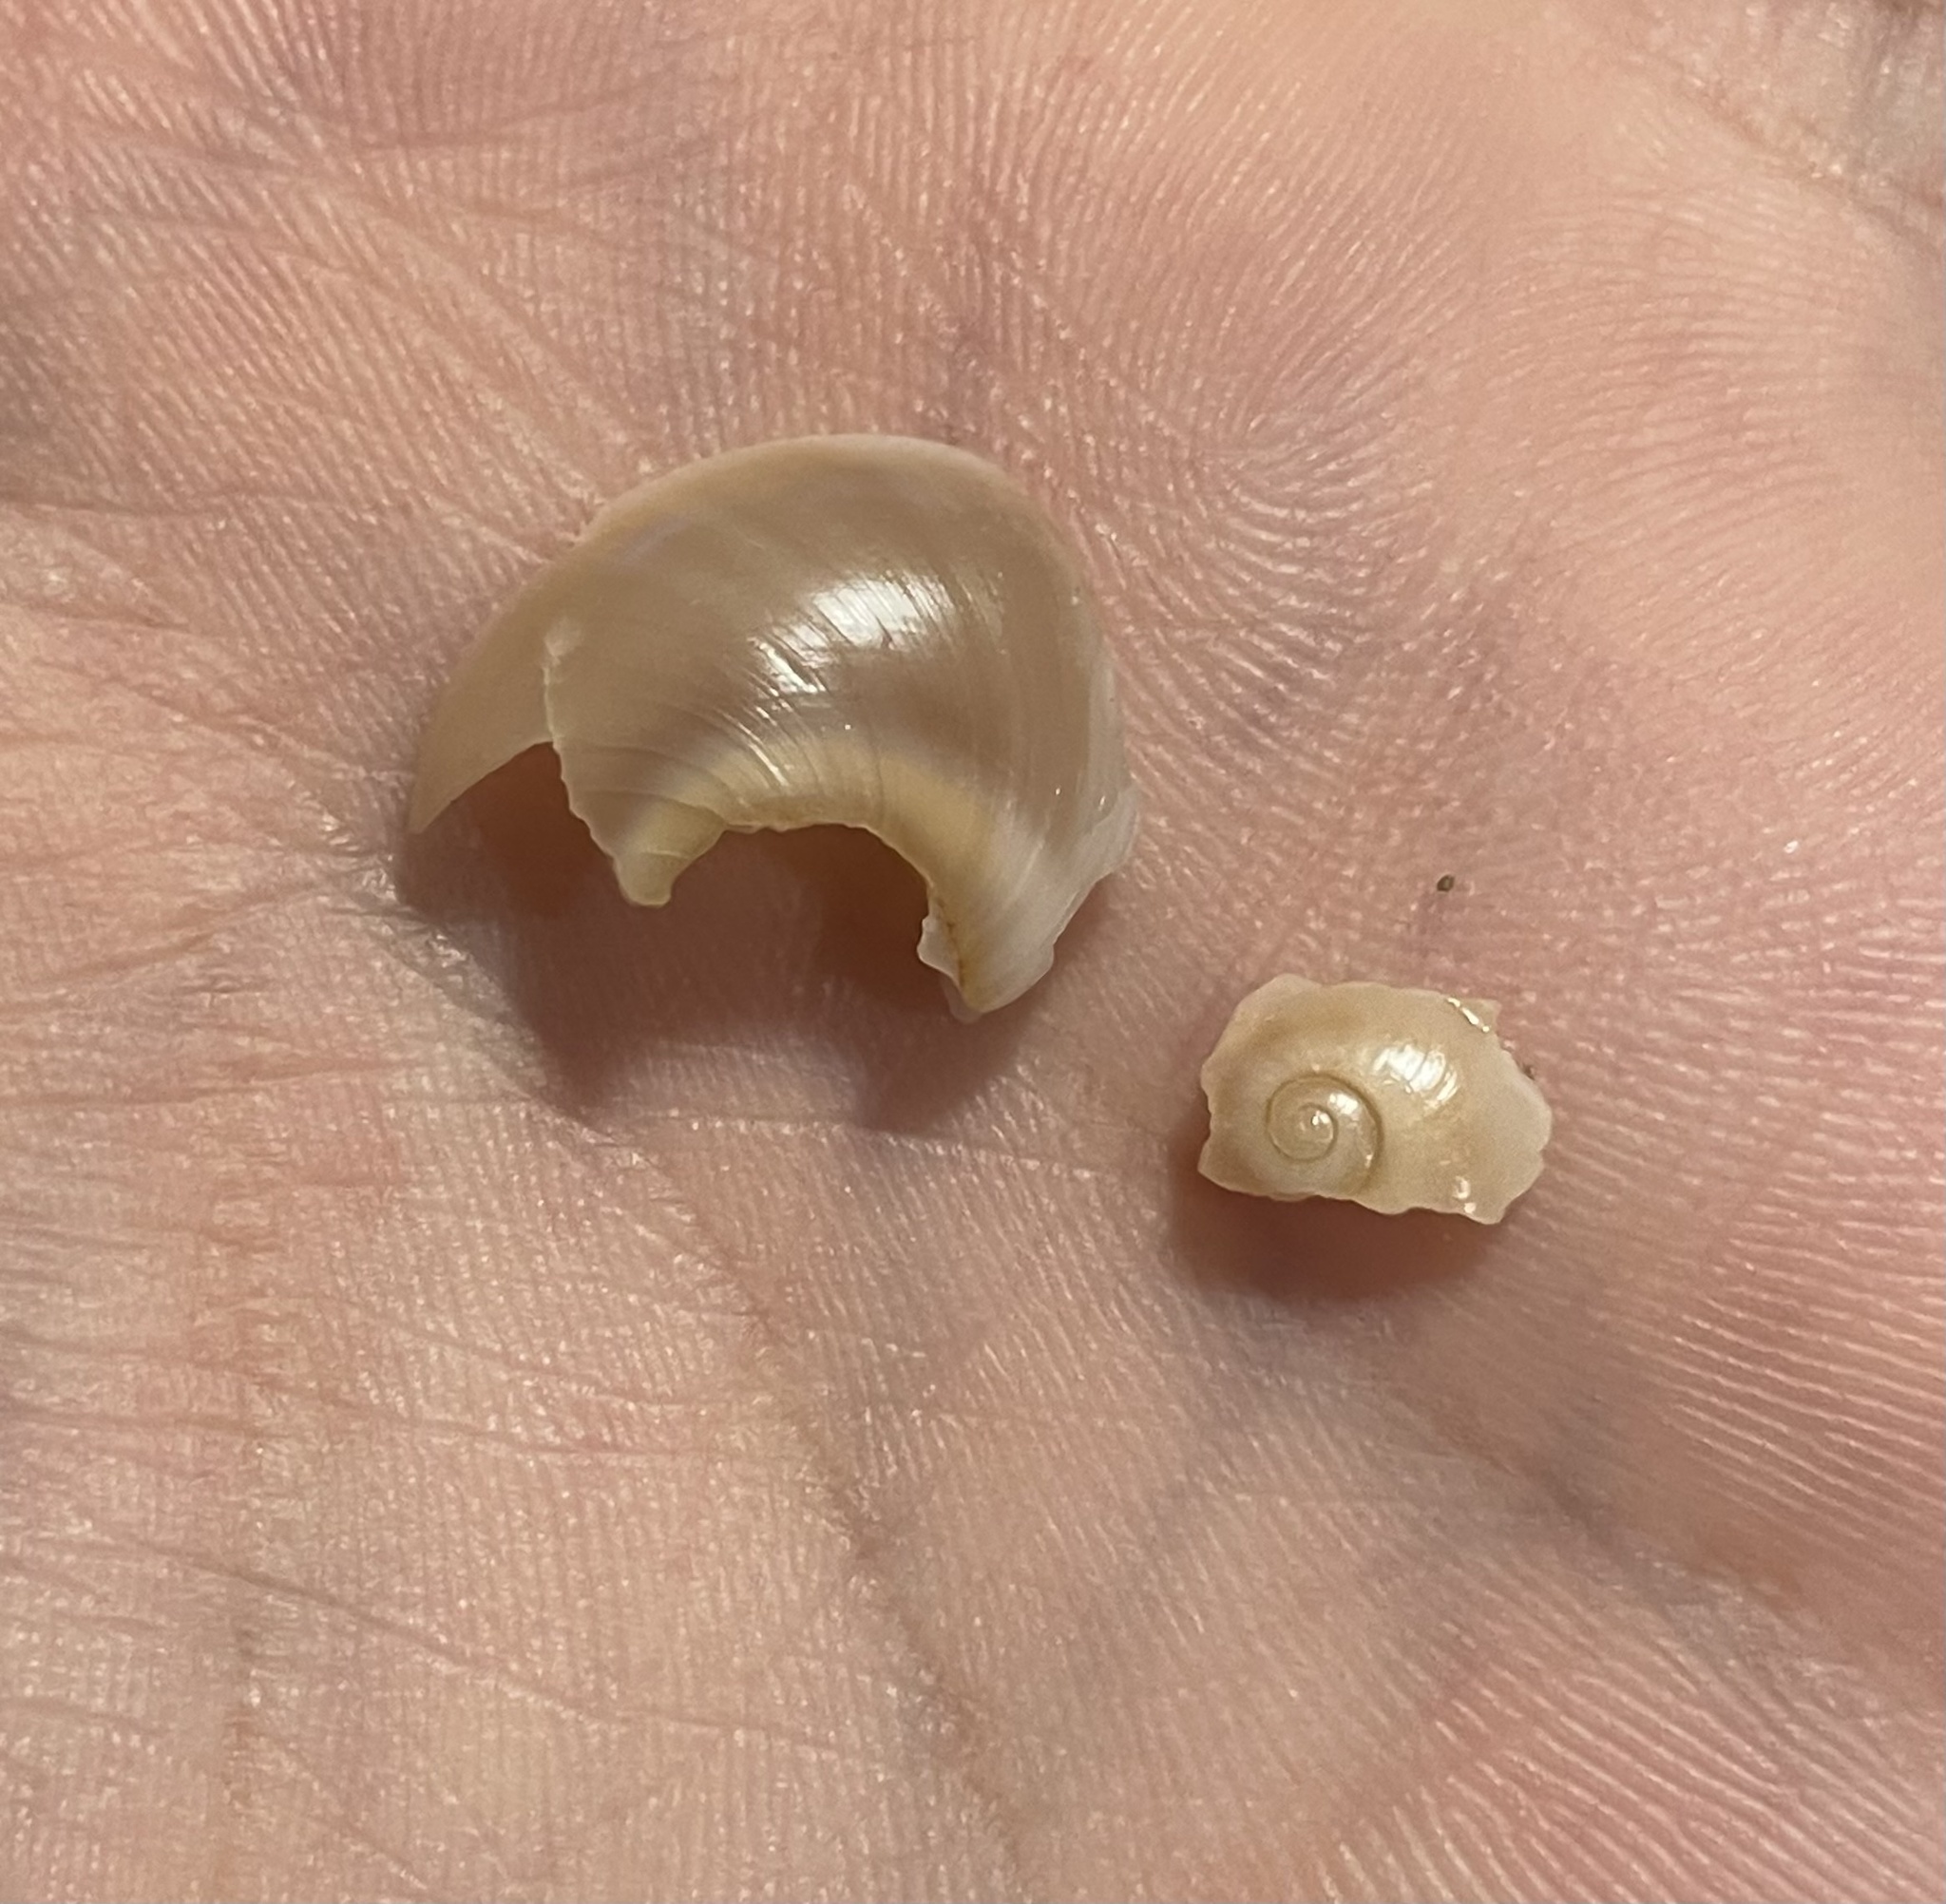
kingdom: Animalia
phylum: Mollusca
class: Gastropoda
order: Littorinimorpha
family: Naticidae
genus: Neverita
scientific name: Neverita josephinia
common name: Josephine's moonsnail
